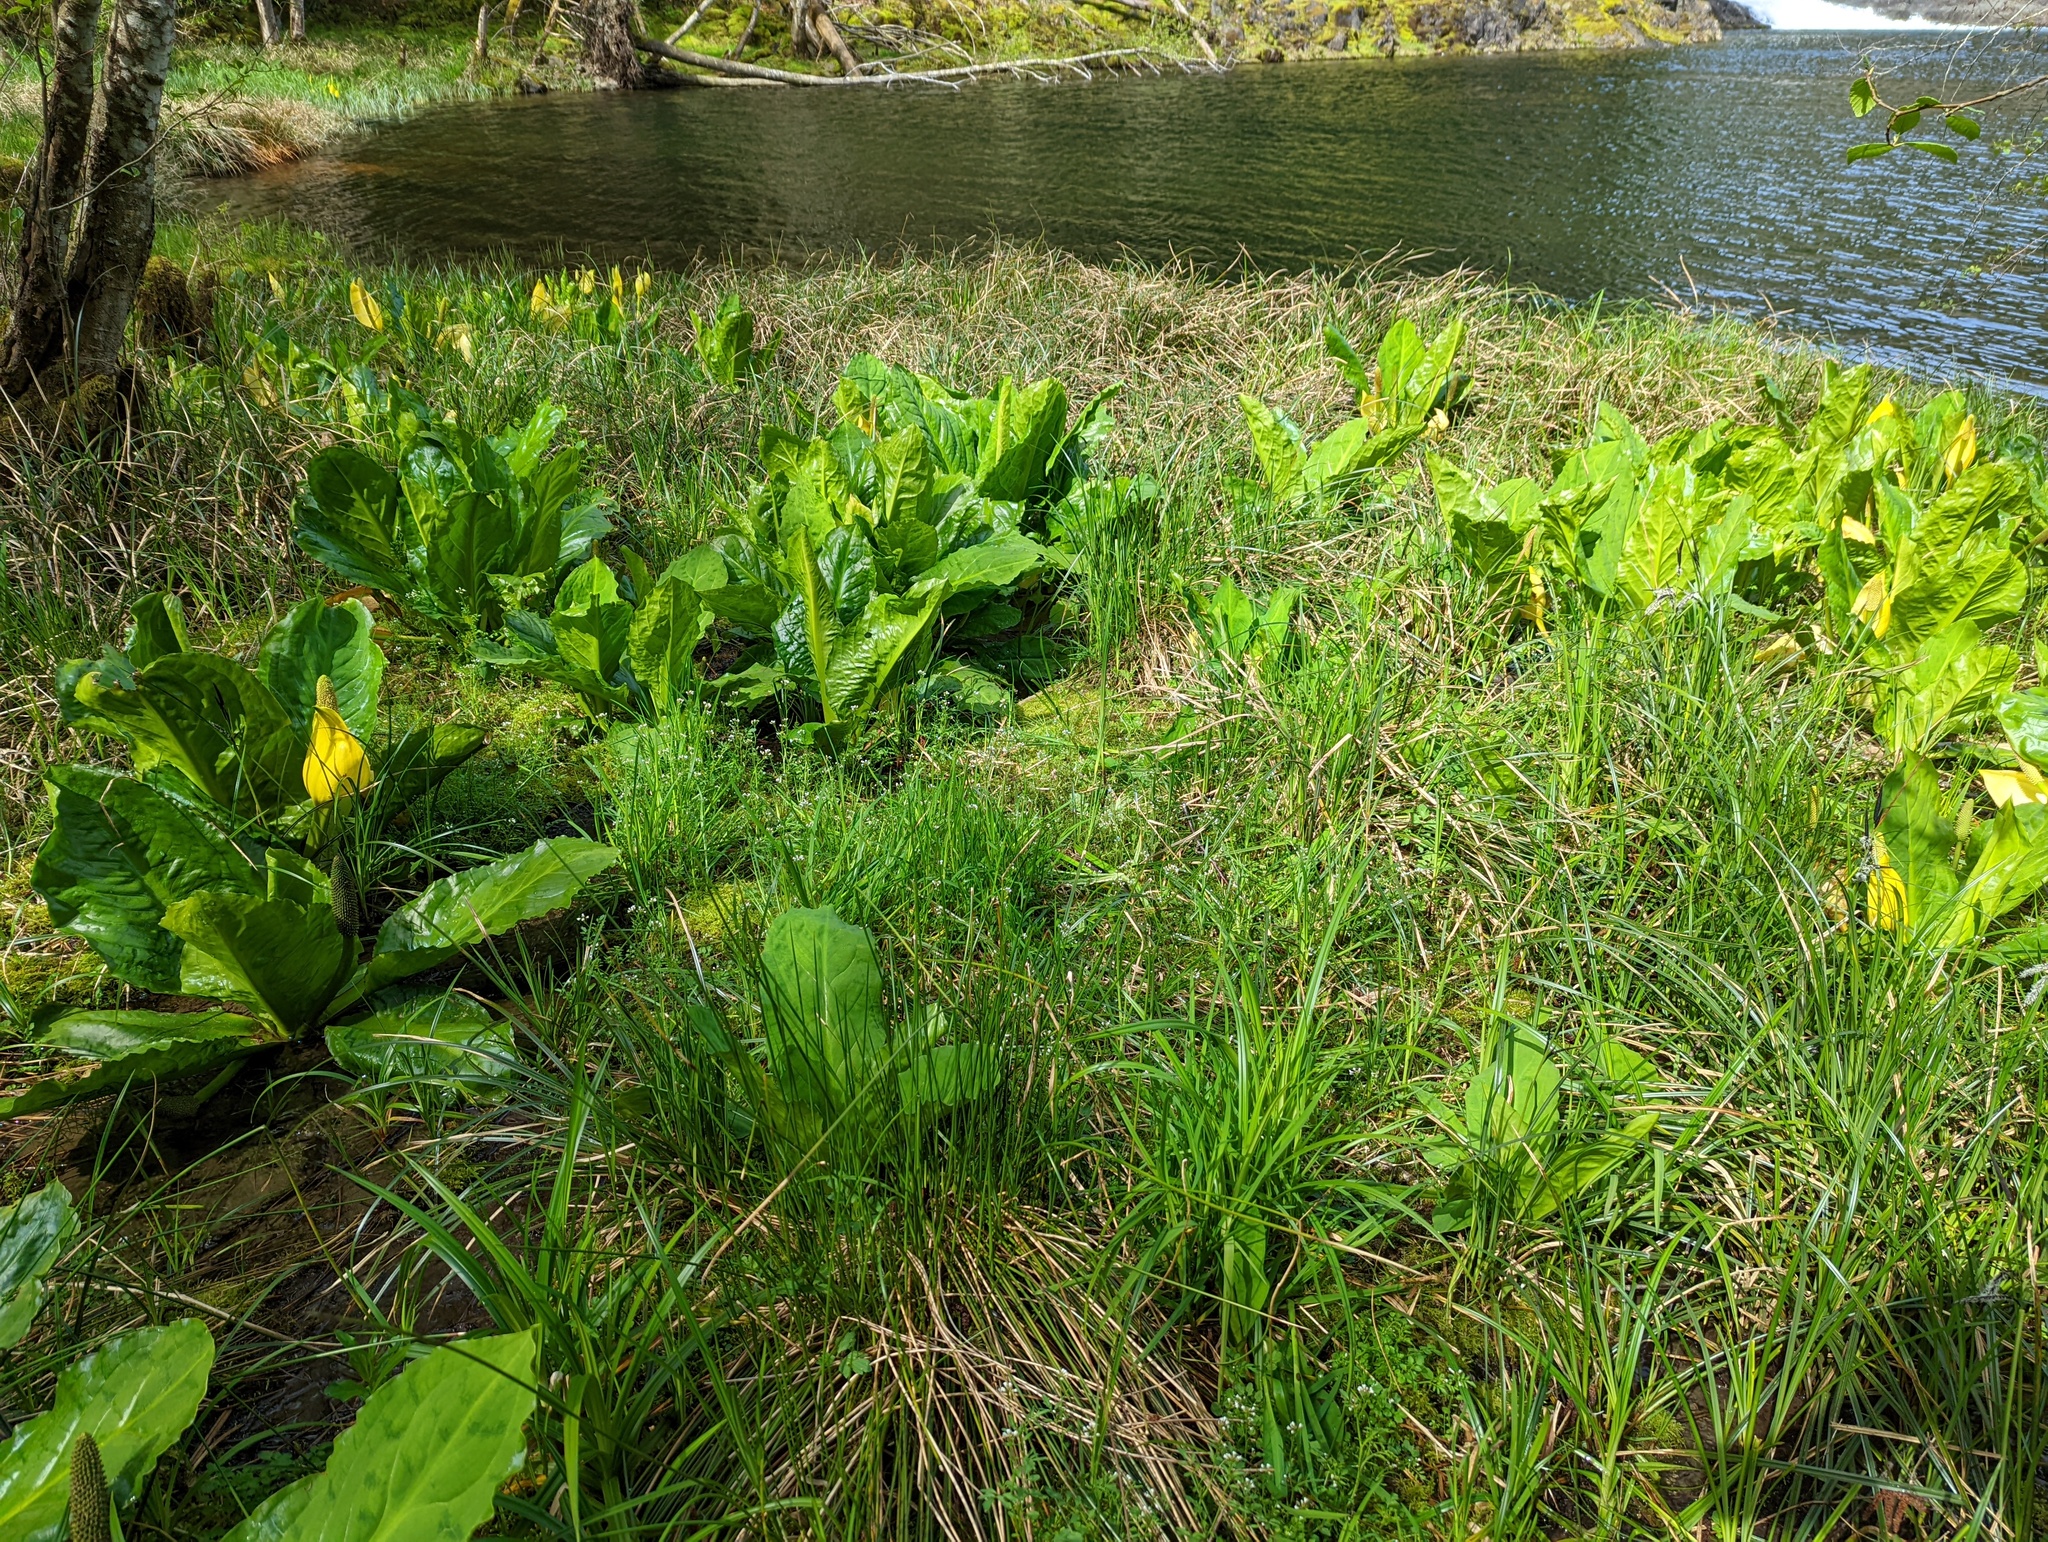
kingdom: Plantae
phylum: Tracheophyta
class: Liliopsida
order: Poales
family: Cyperaceae
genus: Carex
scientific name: Carex obnupta
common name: Slough sedge
